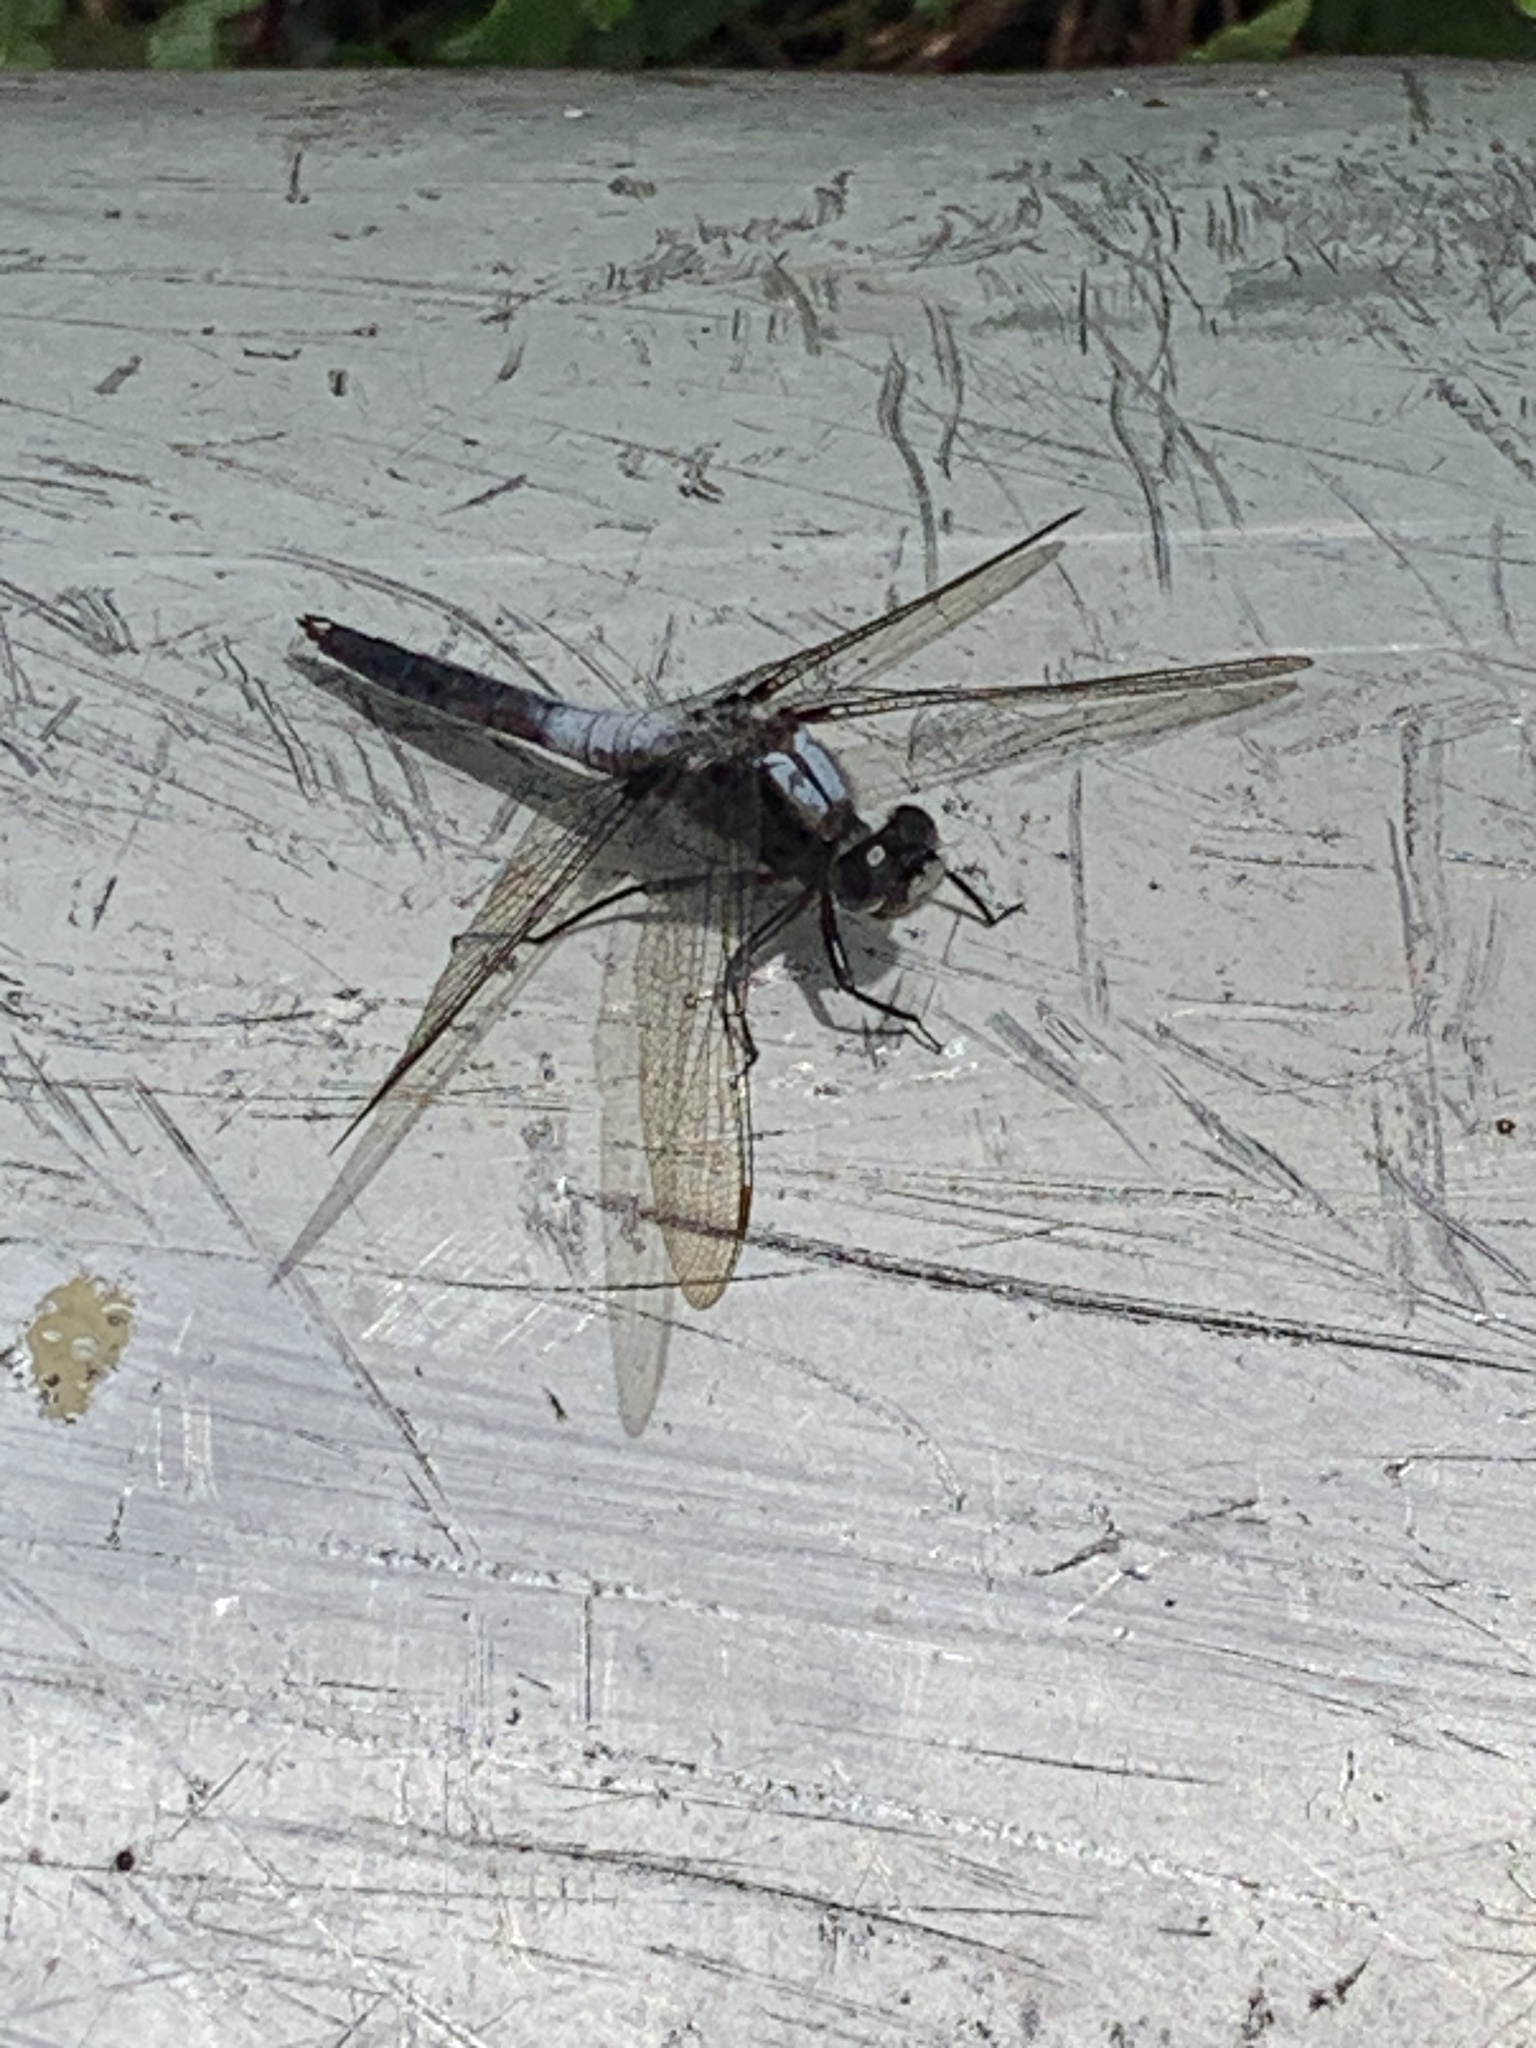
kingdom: Animalia
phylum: Arthropoda
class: Insecta
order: Odonata
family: Libellulidae
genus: Ladona
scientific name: Ladona julia
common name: Chalk-fronted corporal
